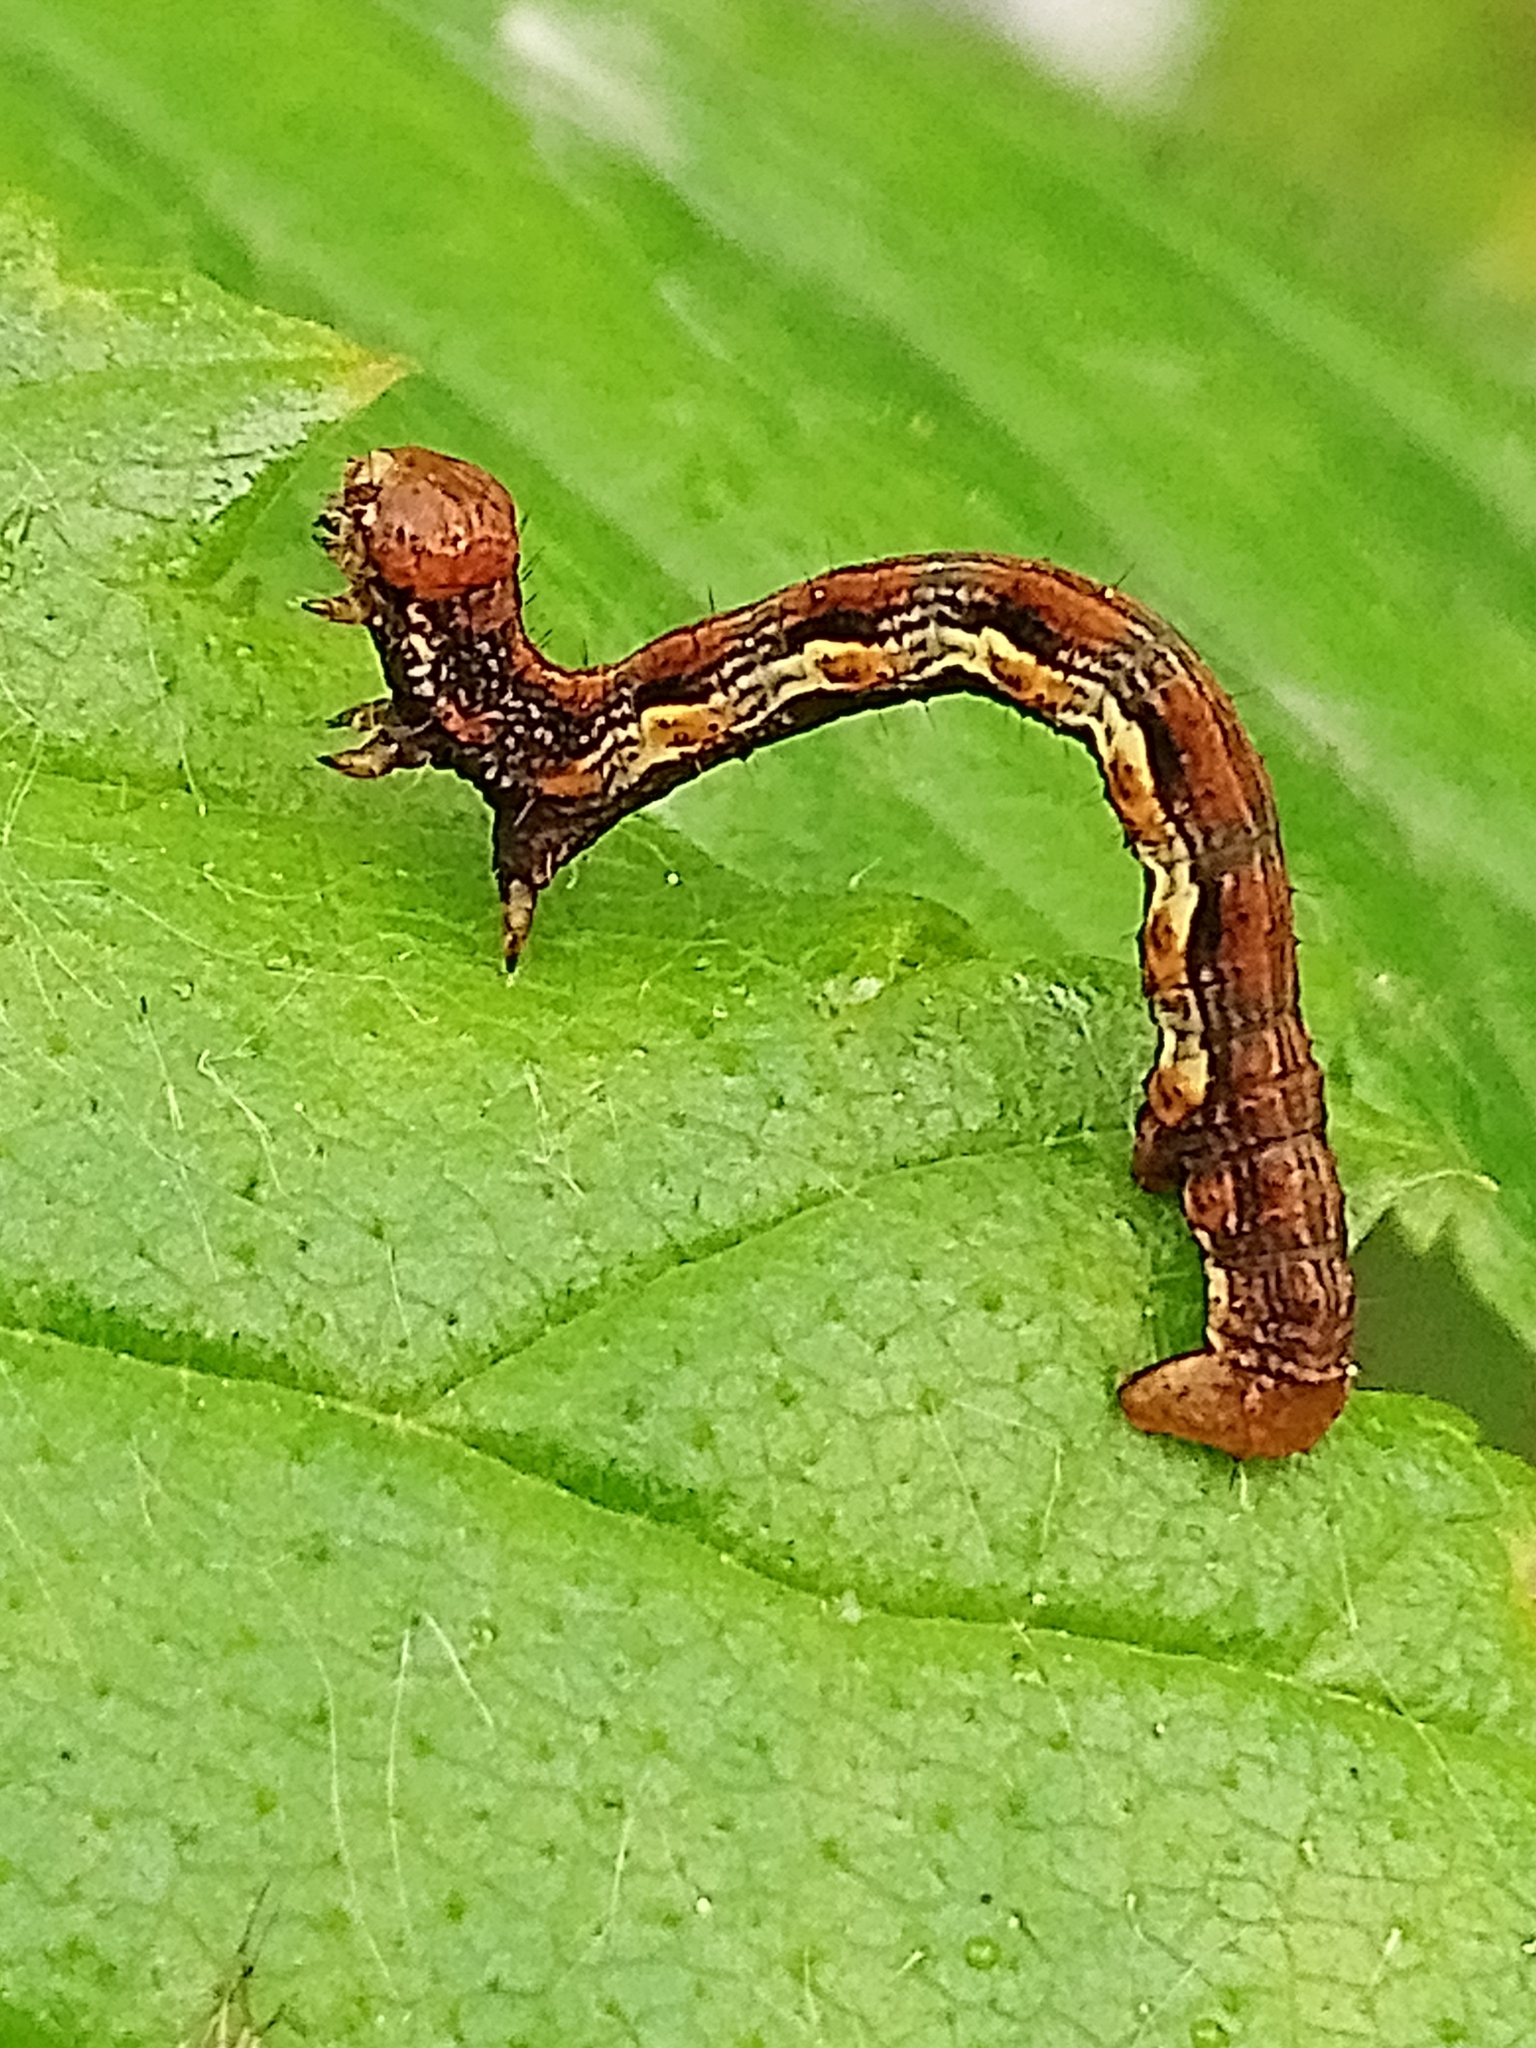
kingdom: Animalia
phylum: Arthropoda
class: Insecta
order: Lepidoptera
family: Geometridae
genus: Erannis
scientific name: Erannis defoliaria
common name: Mottled umber
